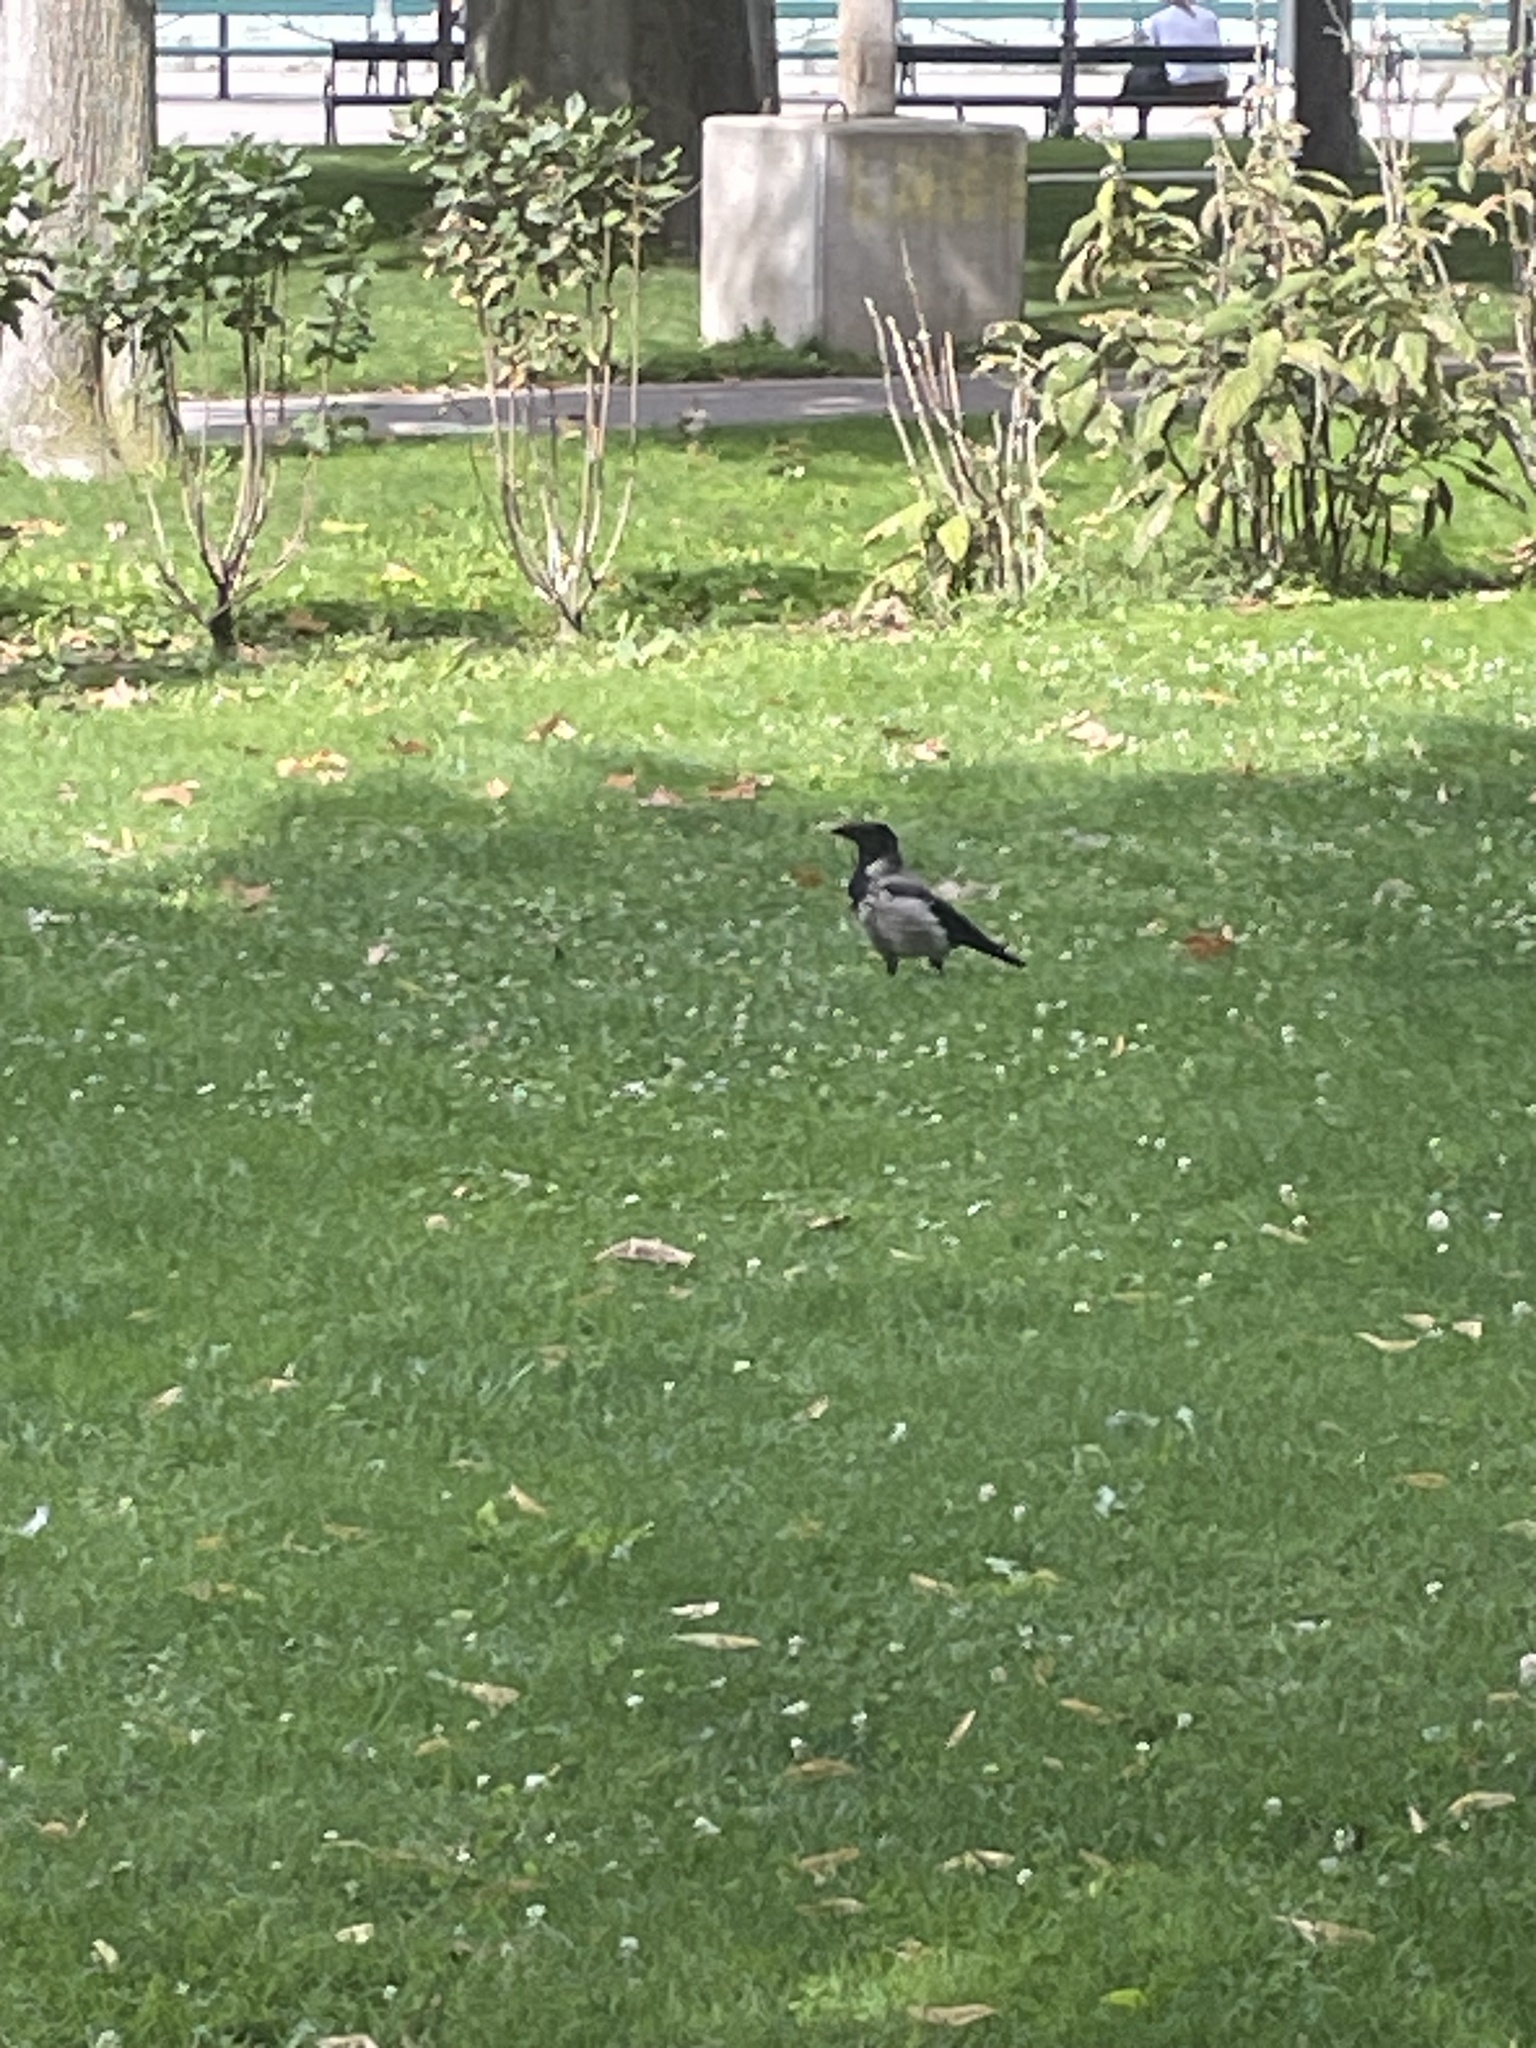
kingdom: Animalia
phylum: Chordata
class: Aves
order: Passeriformes
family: Corvidae
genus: Corvus
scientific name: Corvus cornix
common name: Hooded crow
